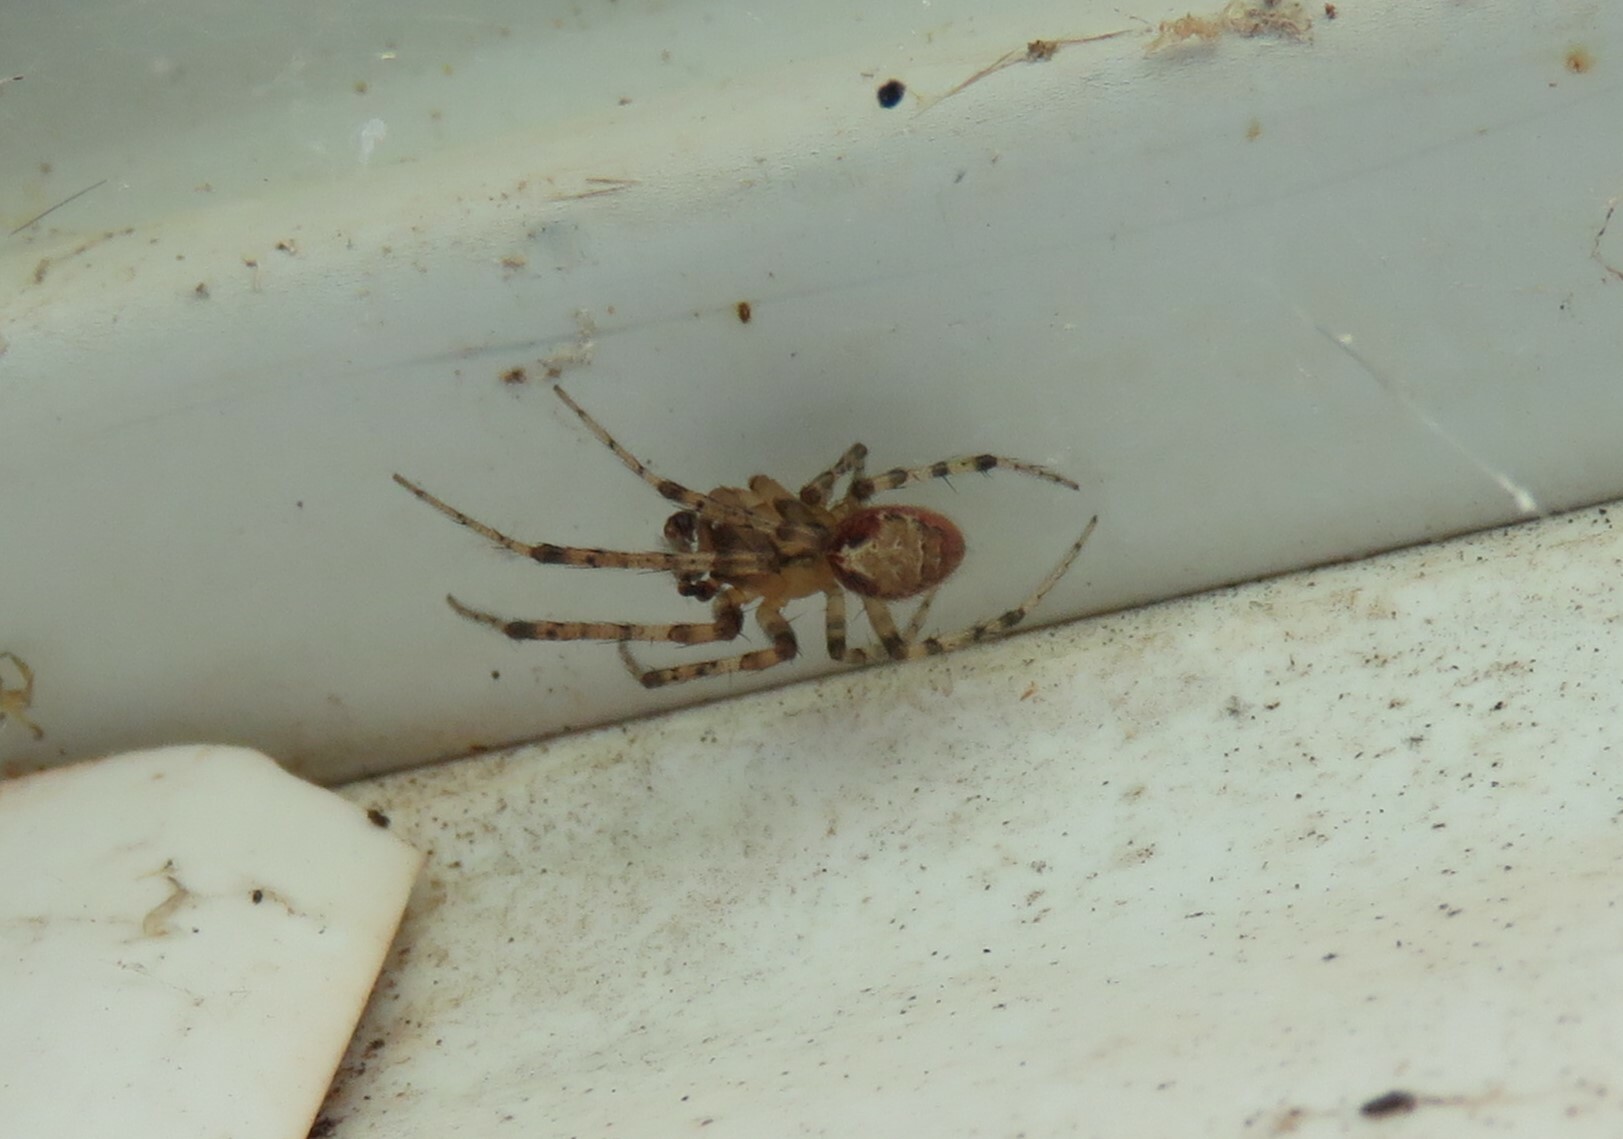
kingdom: Animalia
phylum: Arthropoda
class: Arachnida
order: Araneae
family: Araneidae
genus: Zygiella
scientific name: Zygiella atrica
